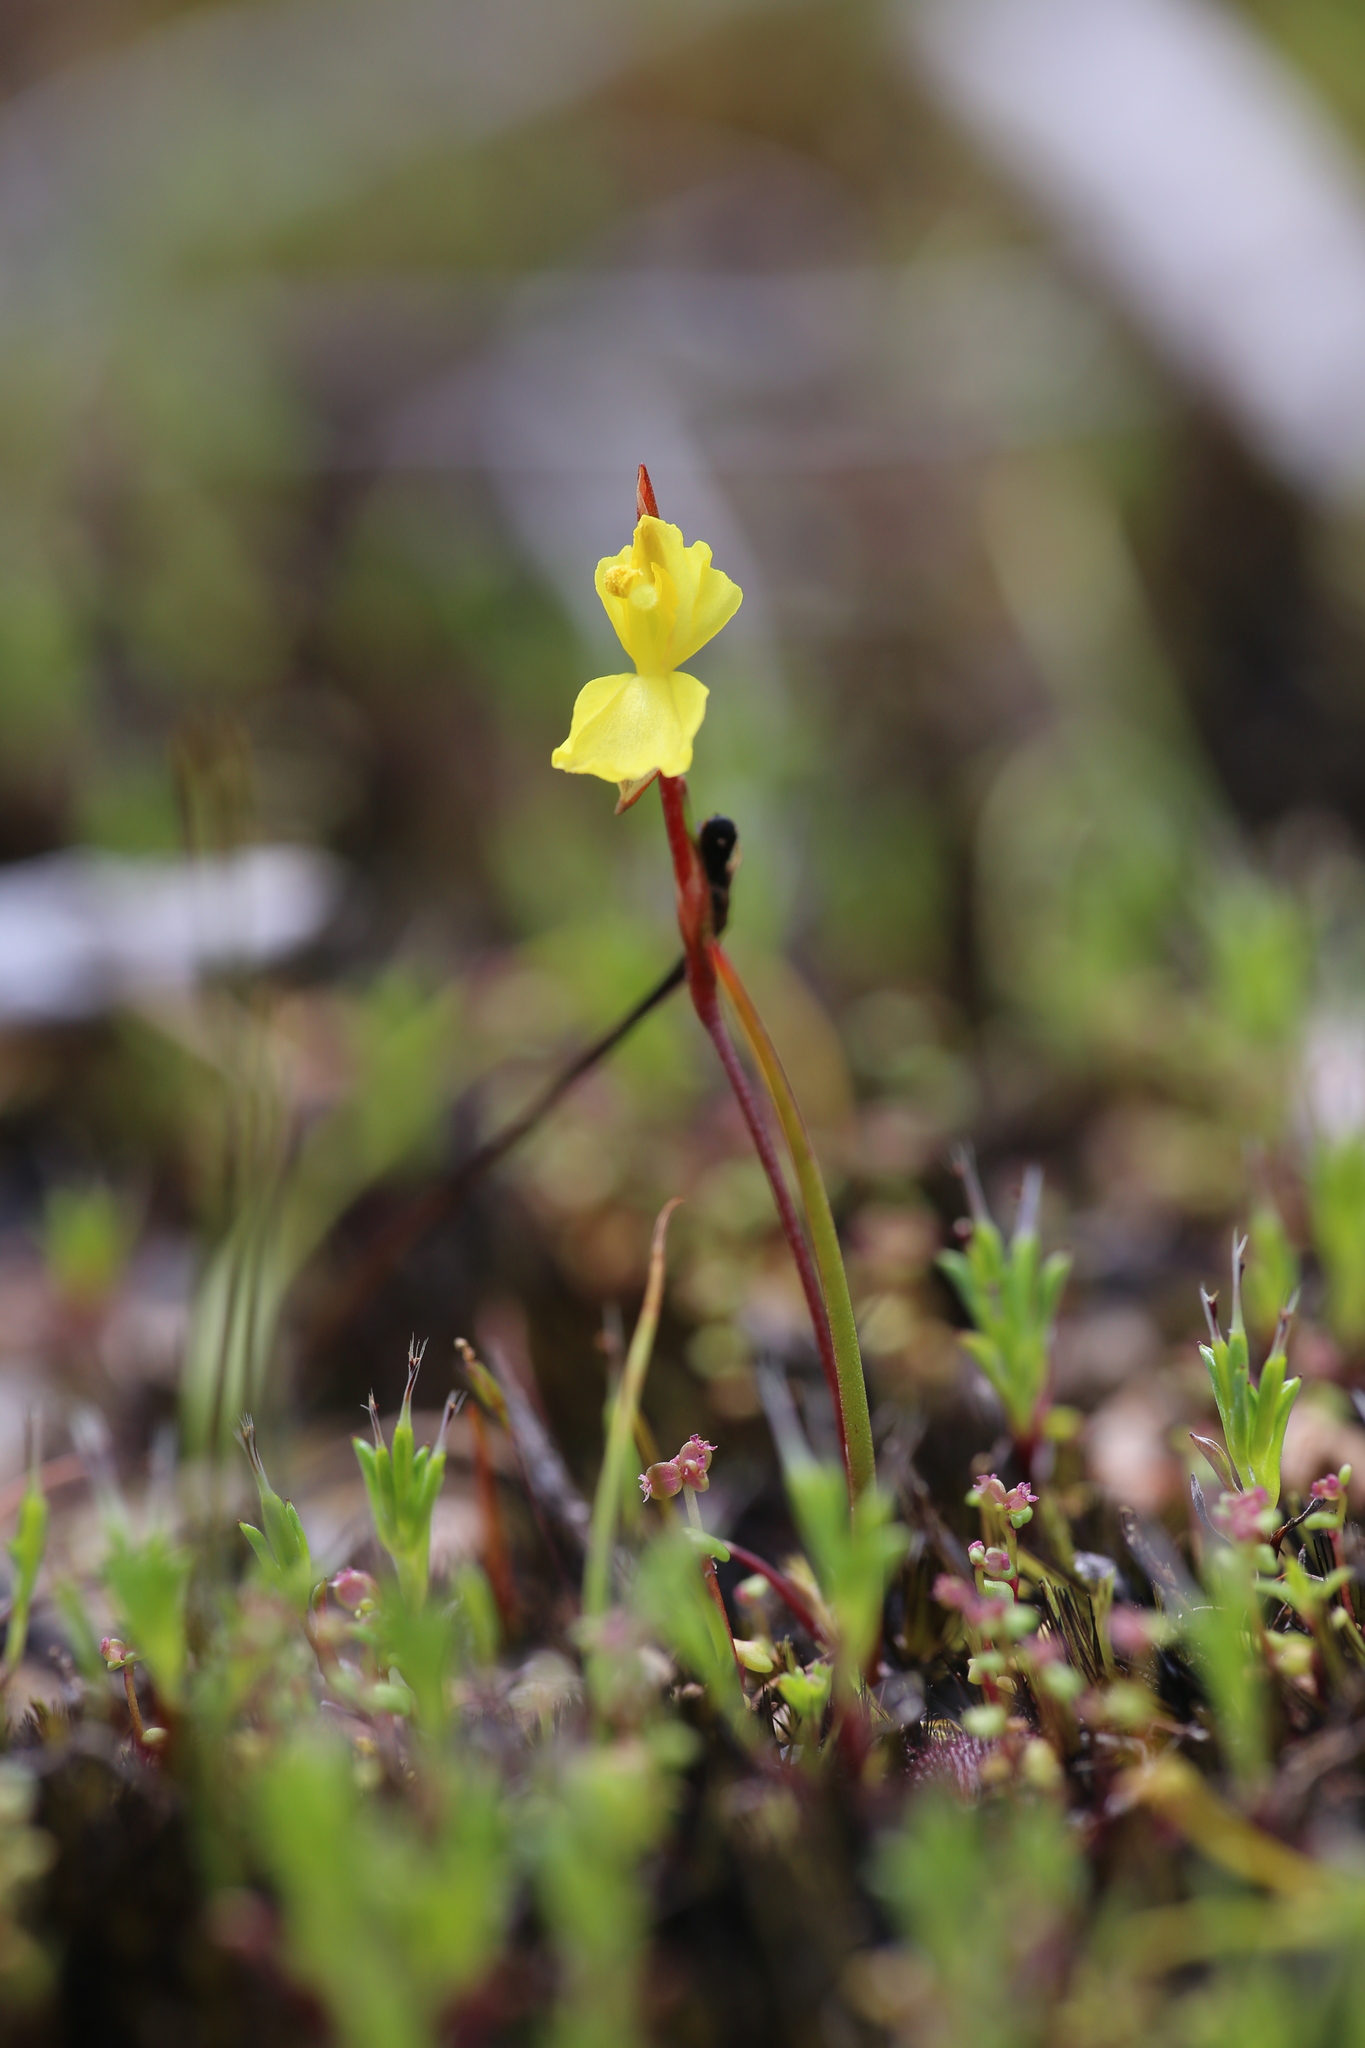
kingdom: Plantae
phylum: Tracheophyta
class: Liliopsida
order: Commelinales
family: Philydraceae
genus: Philydrella
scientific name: Philydrella pygmaea
